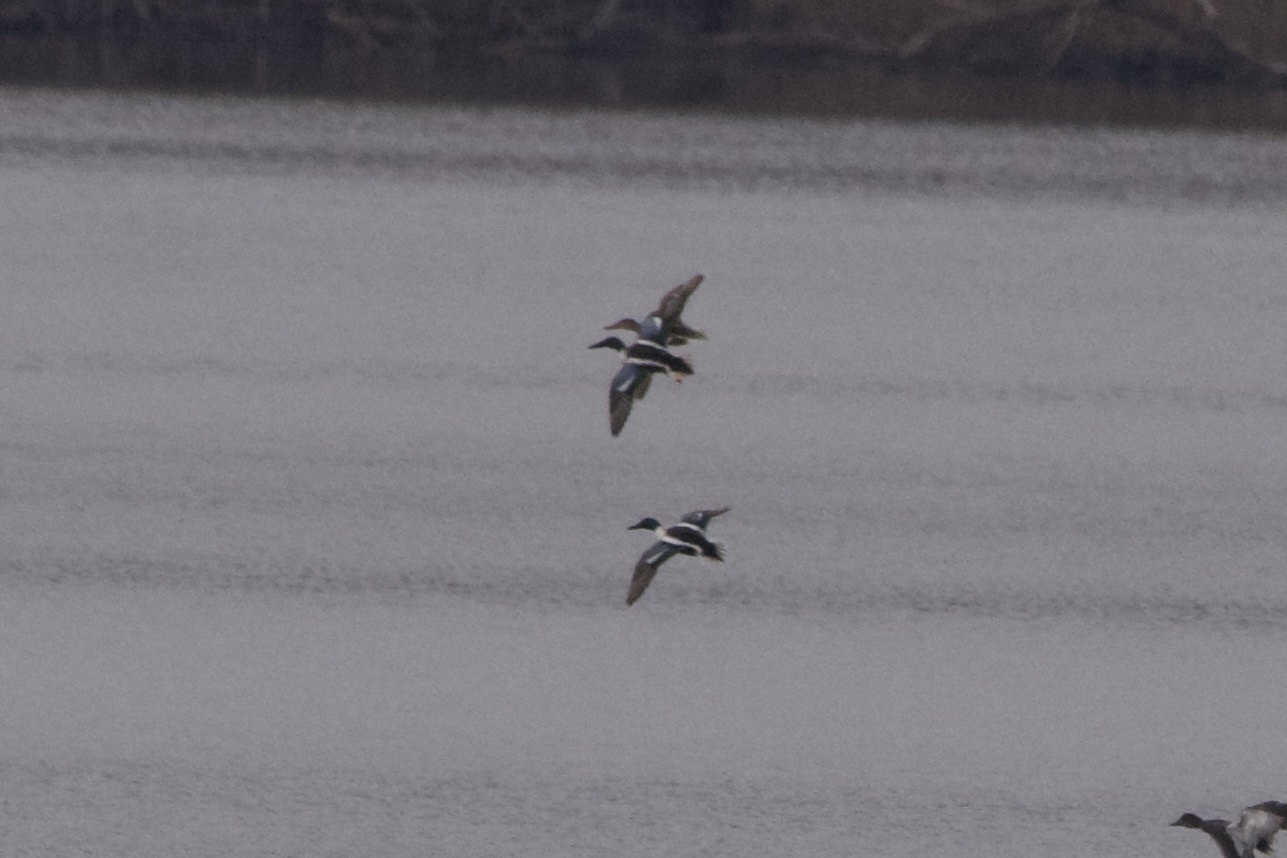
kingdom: Animalia
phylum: Chordata
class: Aves
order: Anseriformes
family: Anatidae
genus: Spatula
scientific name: Spatula clypeata
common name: Northern shoveler
